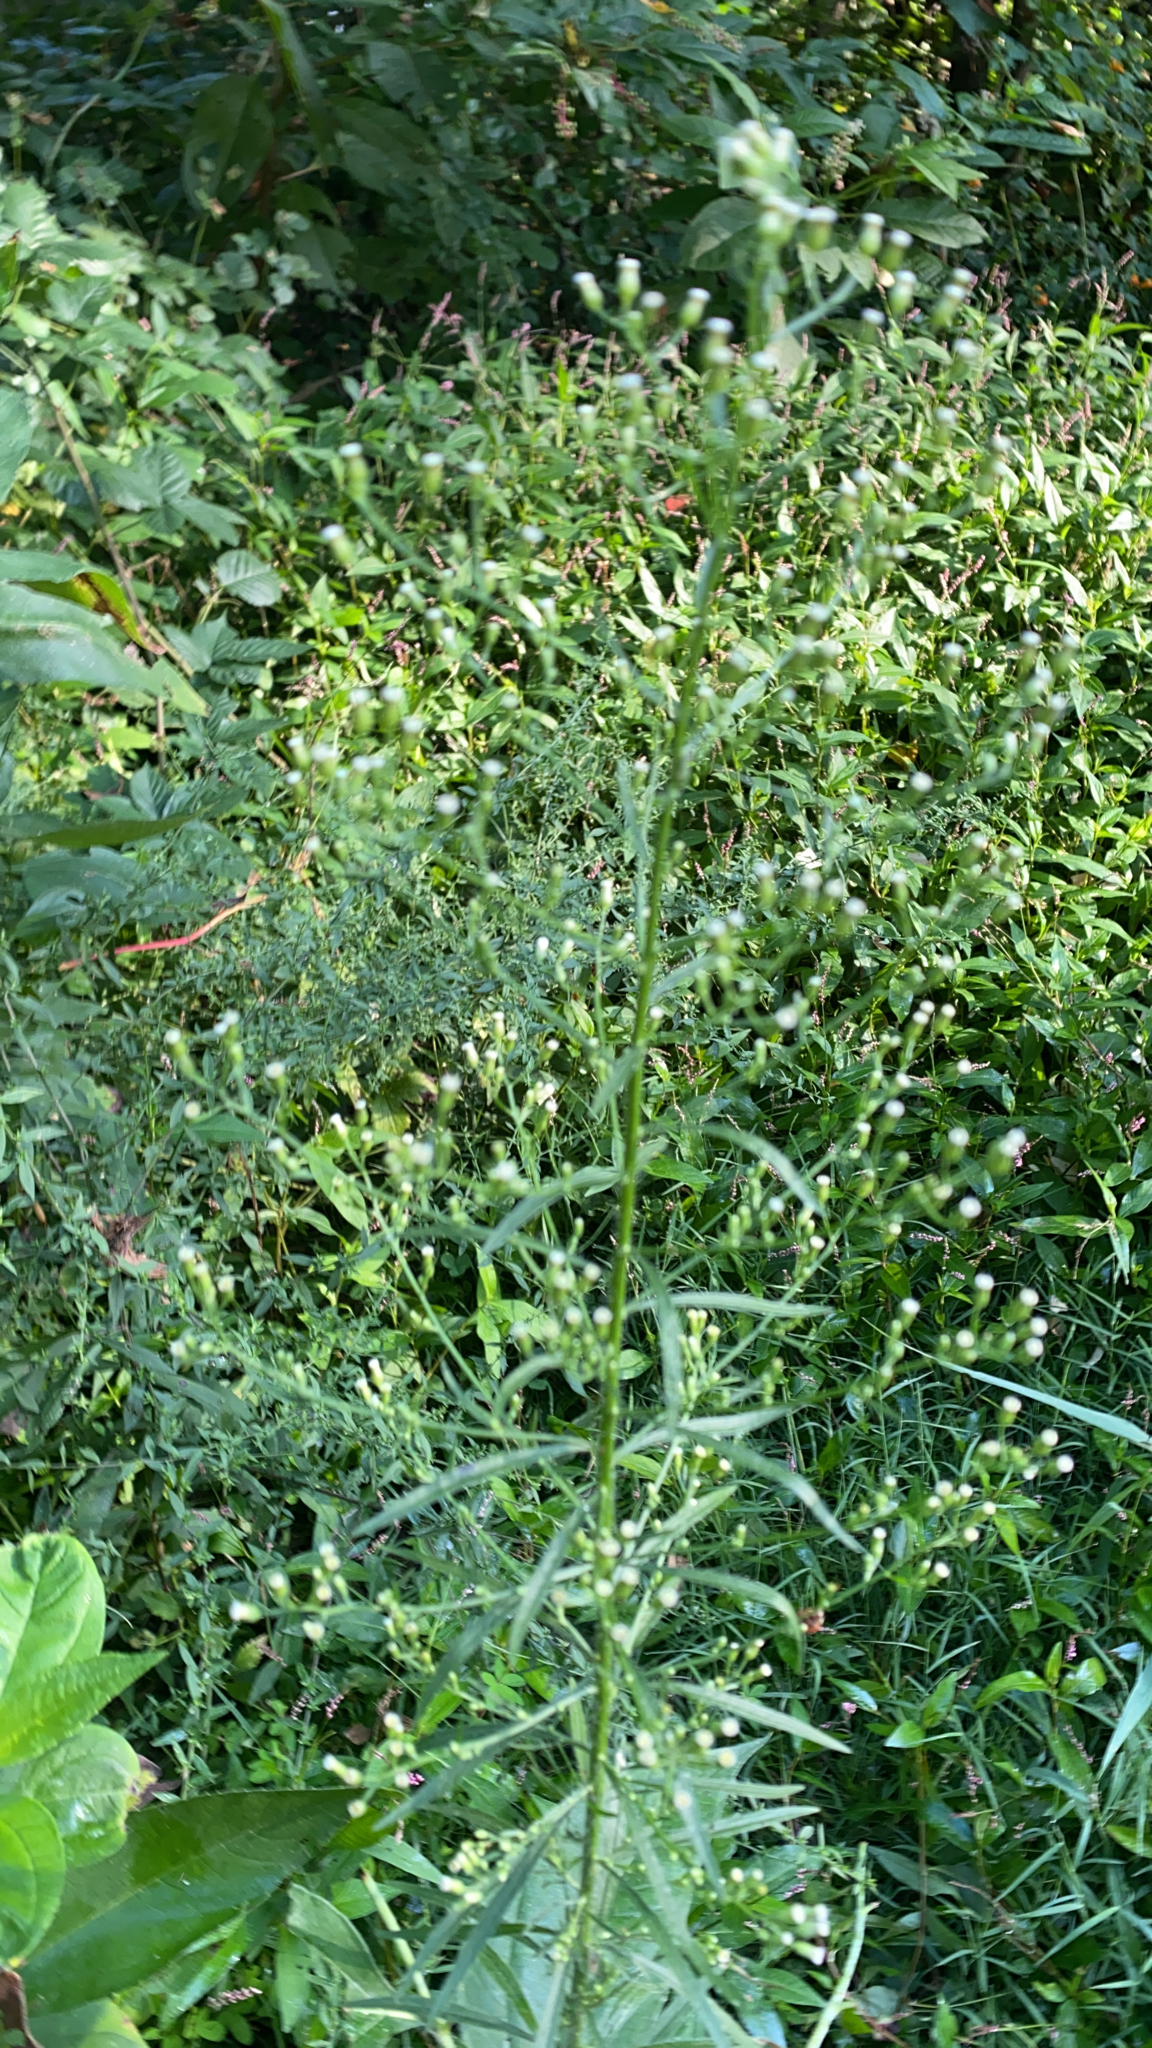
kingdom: Plantae
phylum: Tracheophyta
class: Magnoliopsida
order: Asterales
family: Asteraceae
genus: Erigeron
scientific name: Erigeron canadensis
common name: Canadian fleabane
